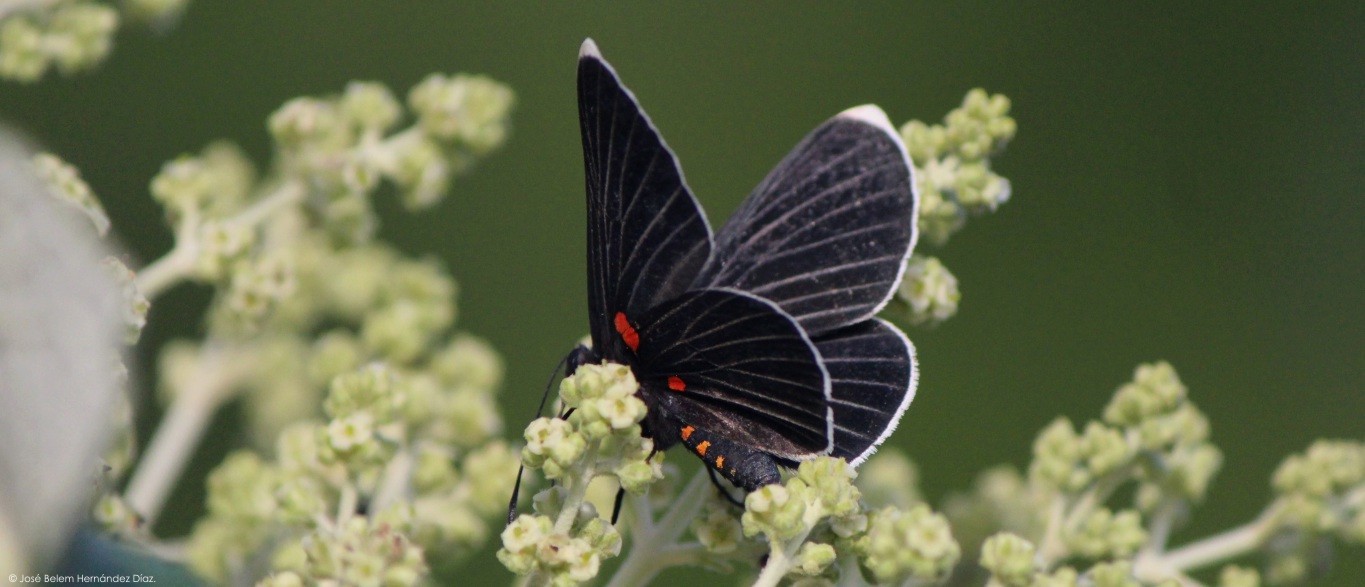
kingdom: Animalia
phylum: Arthropoda
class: Insecta
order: Lepidoptera
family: Lycaenidae
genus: Melanis
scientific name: Melanis
